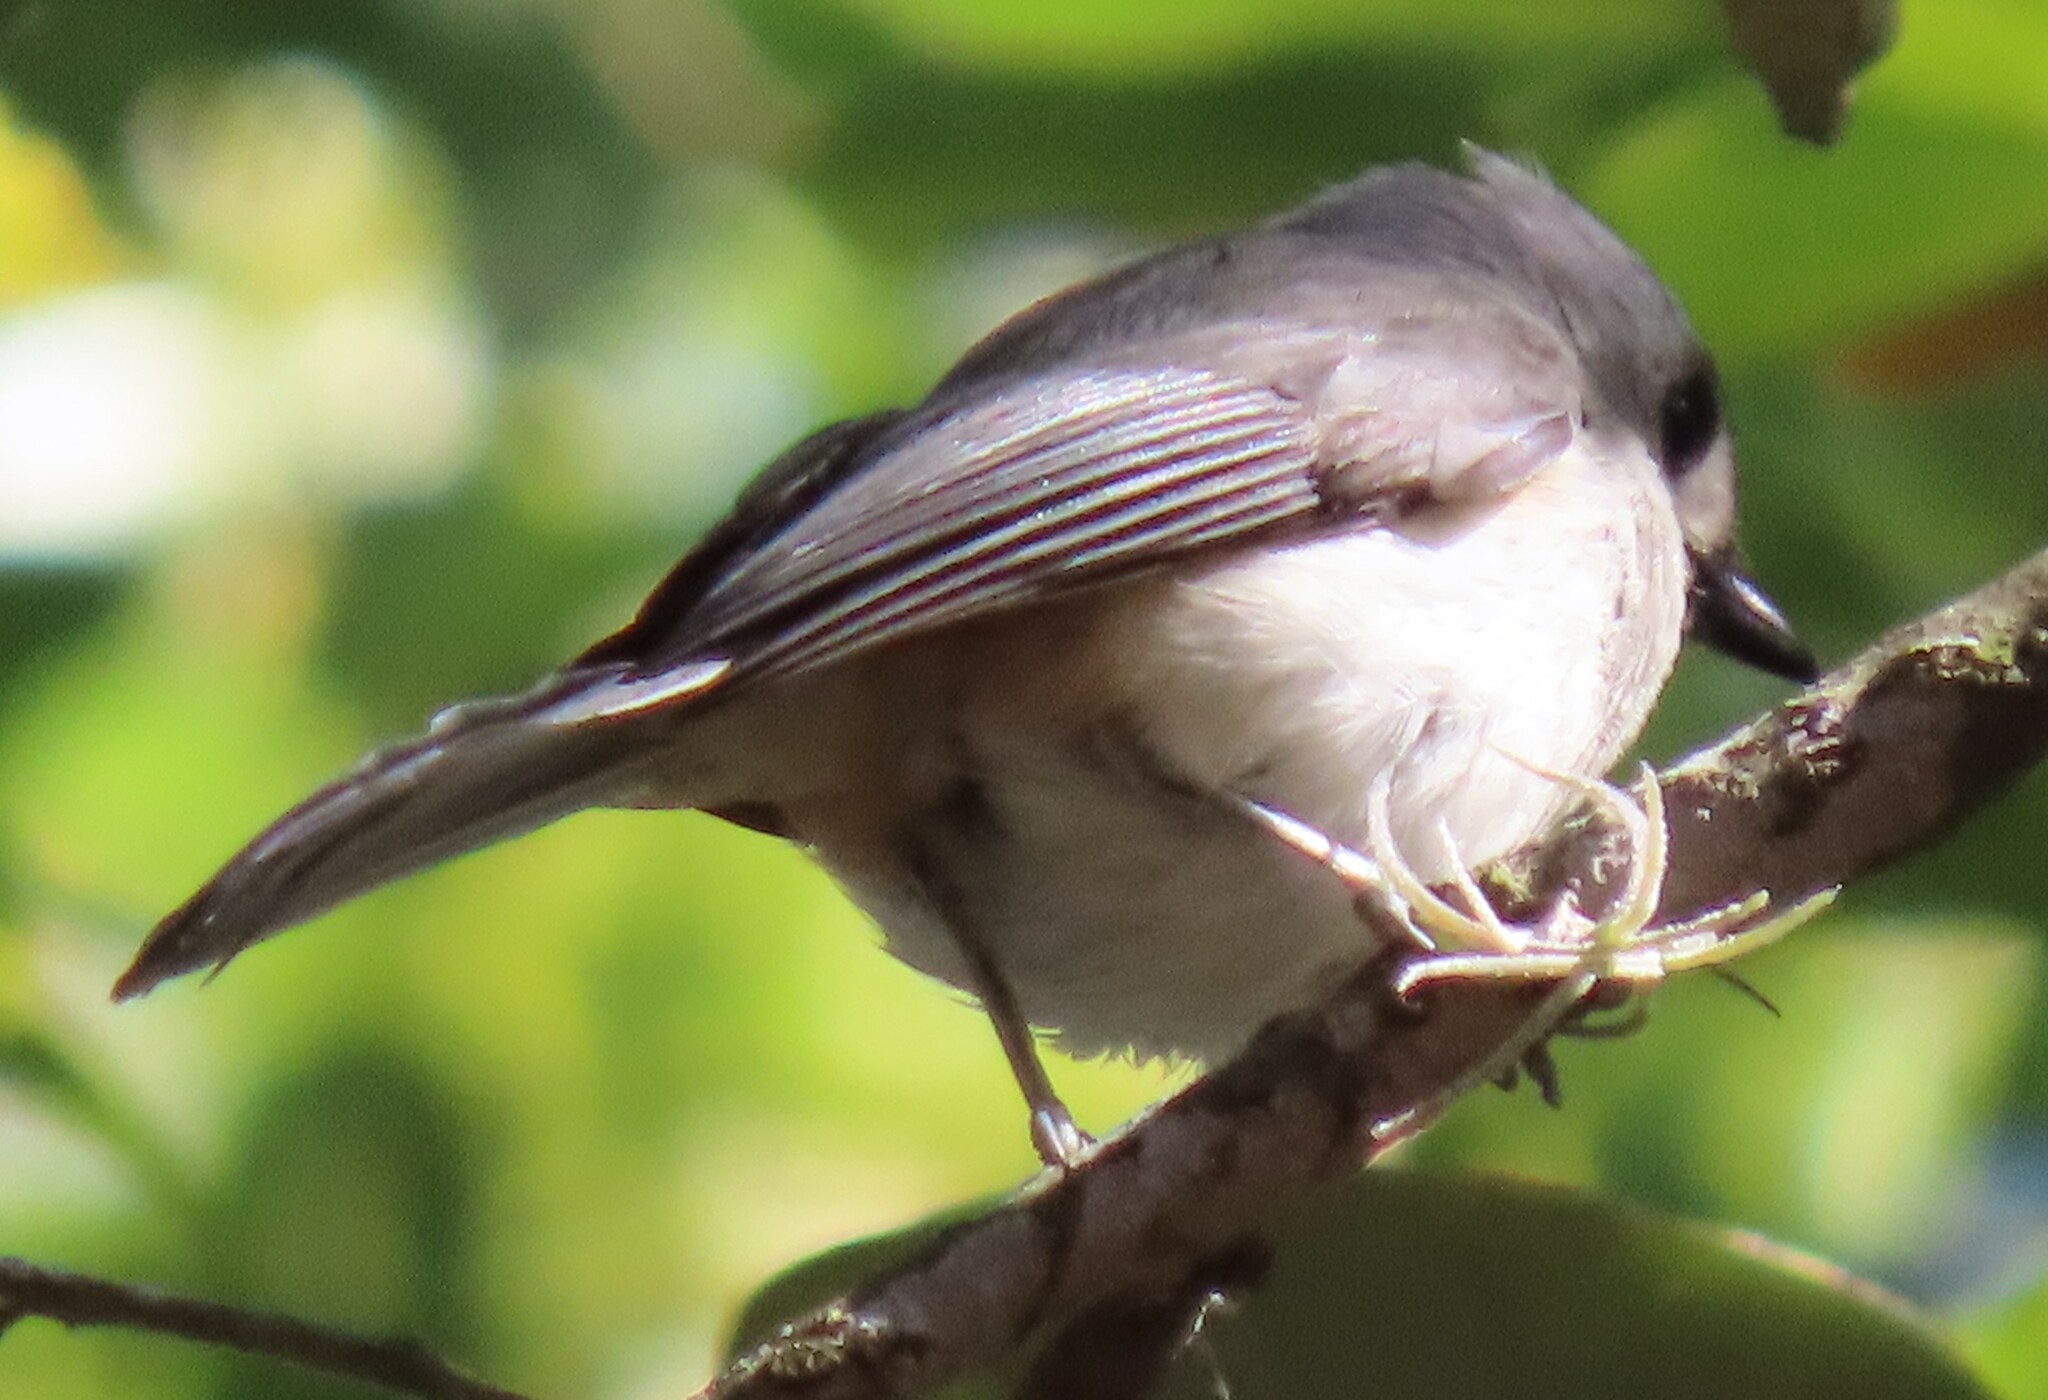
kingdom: Animalia
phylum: Chordata
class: Aves
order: Passeriformes
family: Paridae
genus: Baeolophus
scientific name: Baeolophus bicolor
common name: Tufted titmouse
